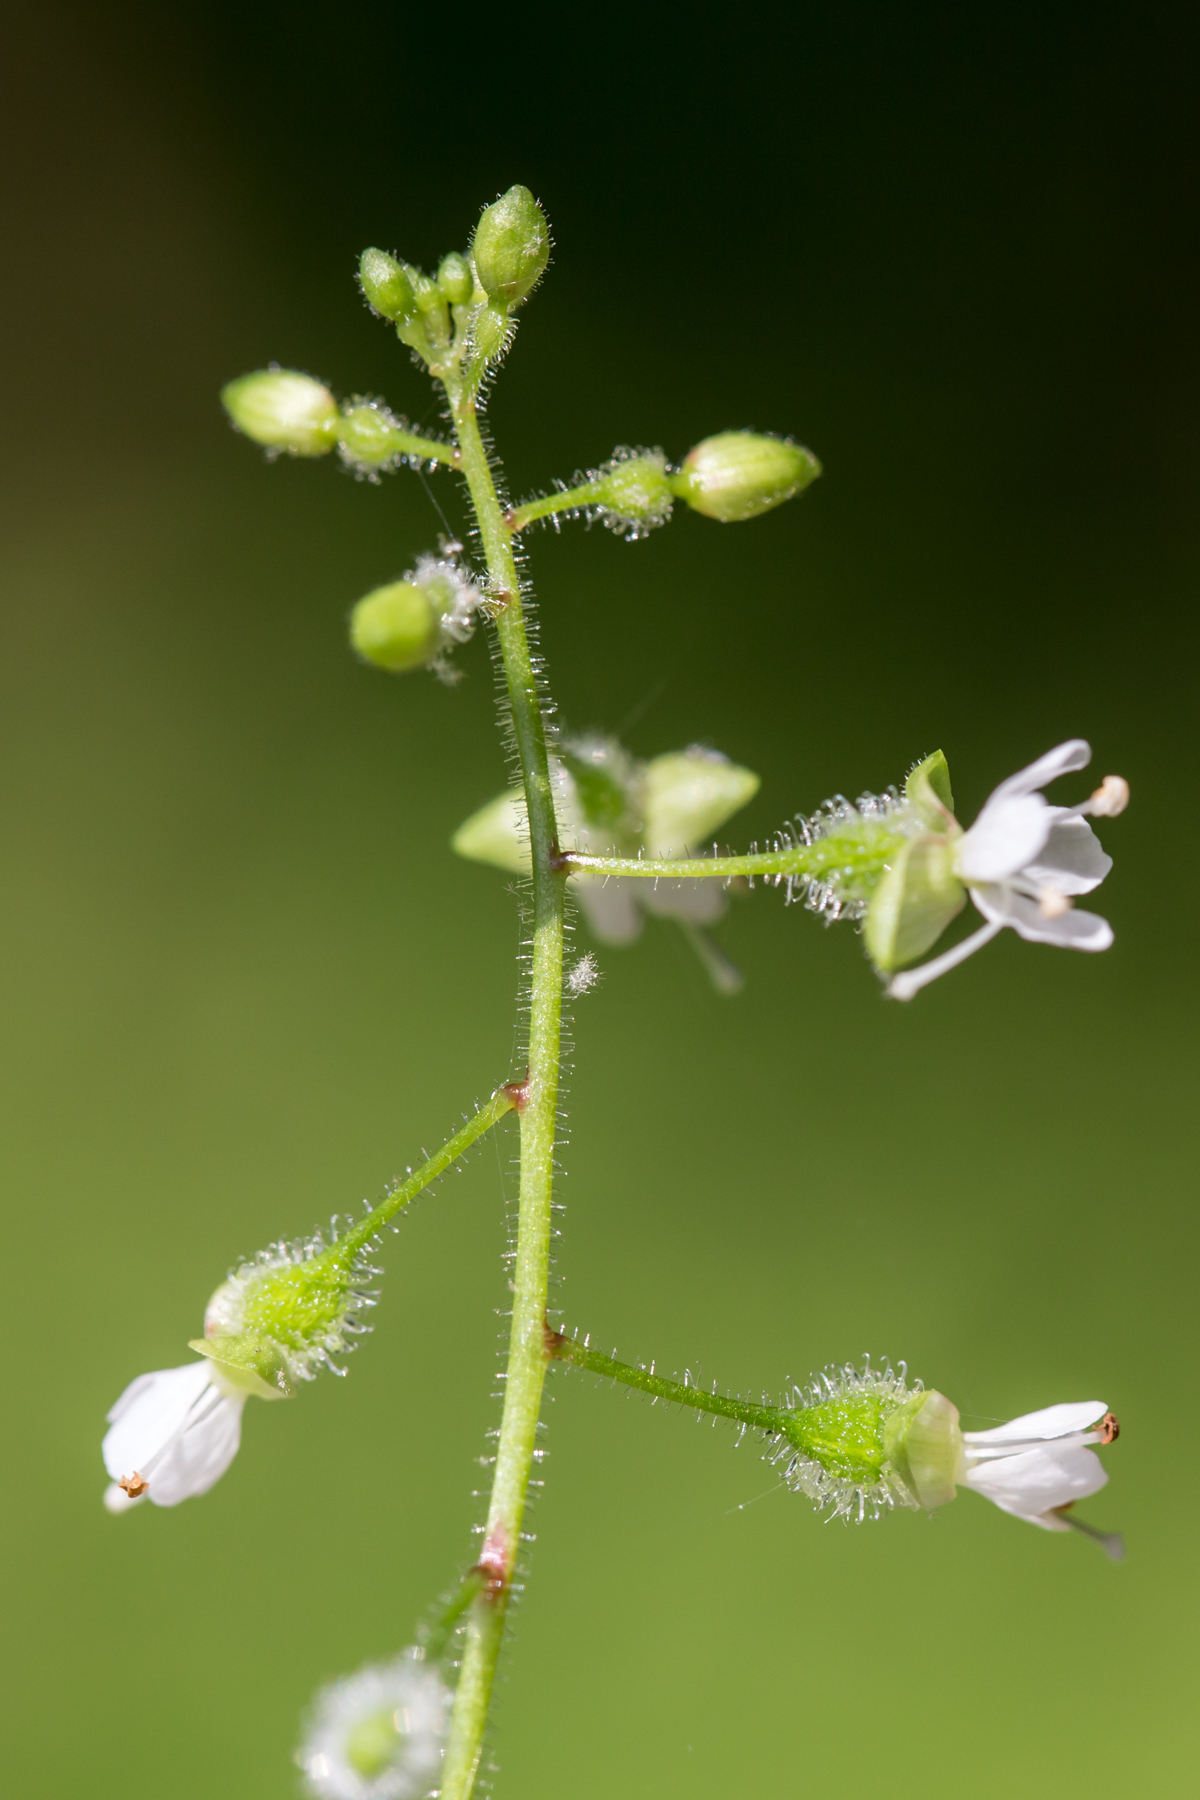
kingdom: Plantae
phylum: Tracheophyta
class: Magnoliopsida
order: Myrtales
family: Onagraceae
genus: Circaea
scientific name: Circaea canadensis
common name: Broad-leaved enchanter's nightshade
